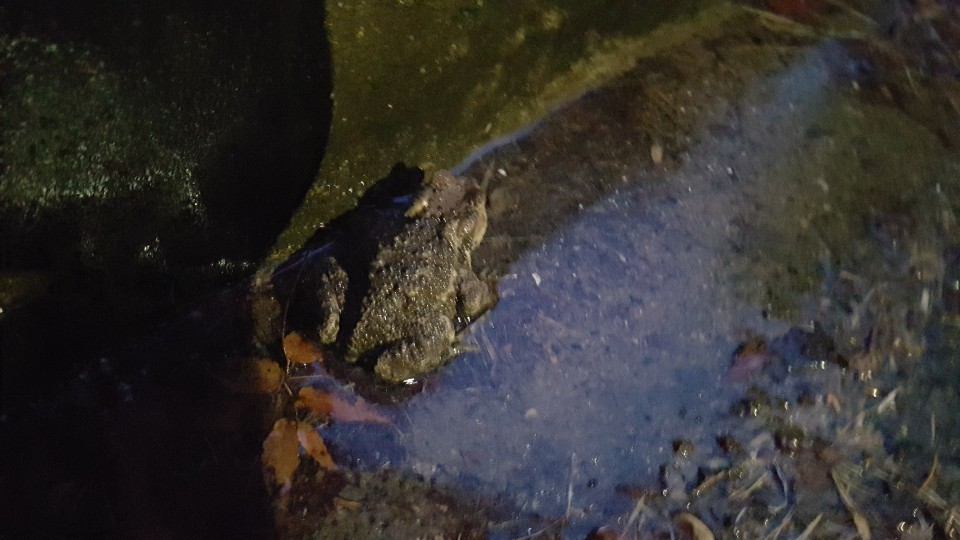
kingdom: Animalia
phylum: Chordata
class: Amphibia
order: Anura
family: Bufonidae
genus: Bufo
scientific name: Bufo gargarizans
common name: Asiatic toad
